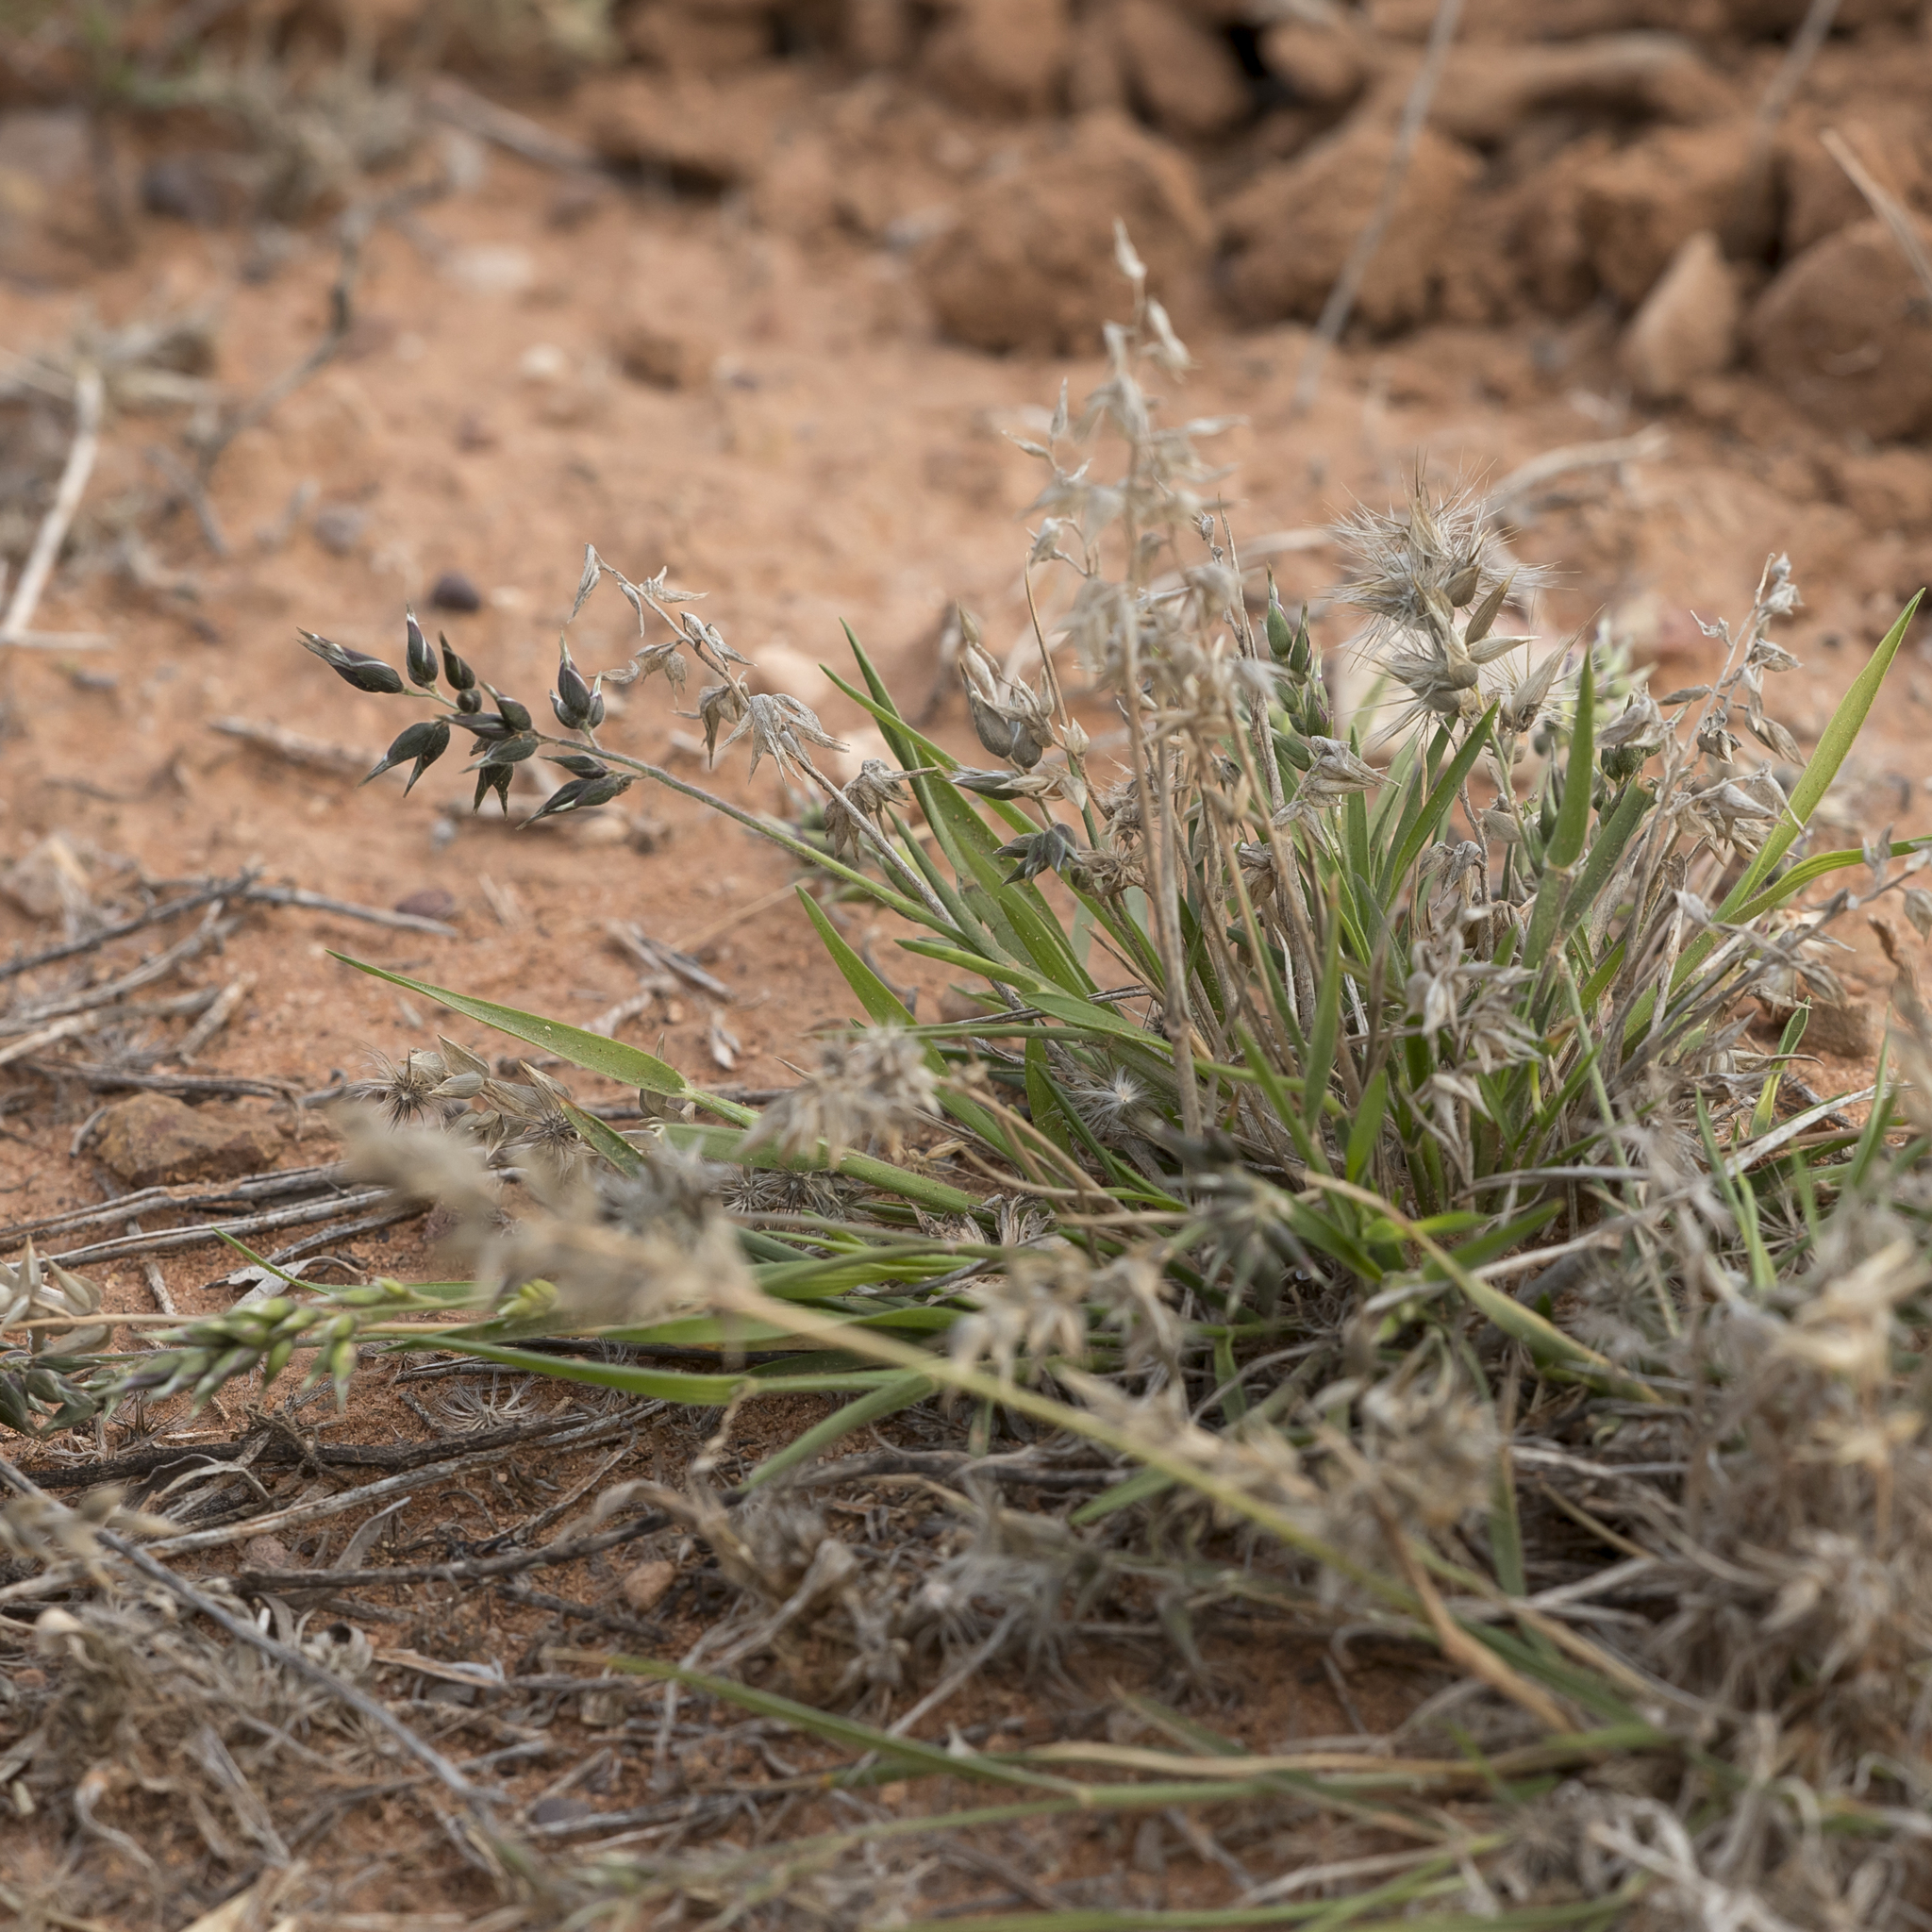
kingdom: Plantae
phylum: Tracheophyta
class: Liliopsida
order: Poales
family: Poaceae
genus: Enneapogon
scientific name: Enneapogon avenaceus
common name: Hairy oat grass
